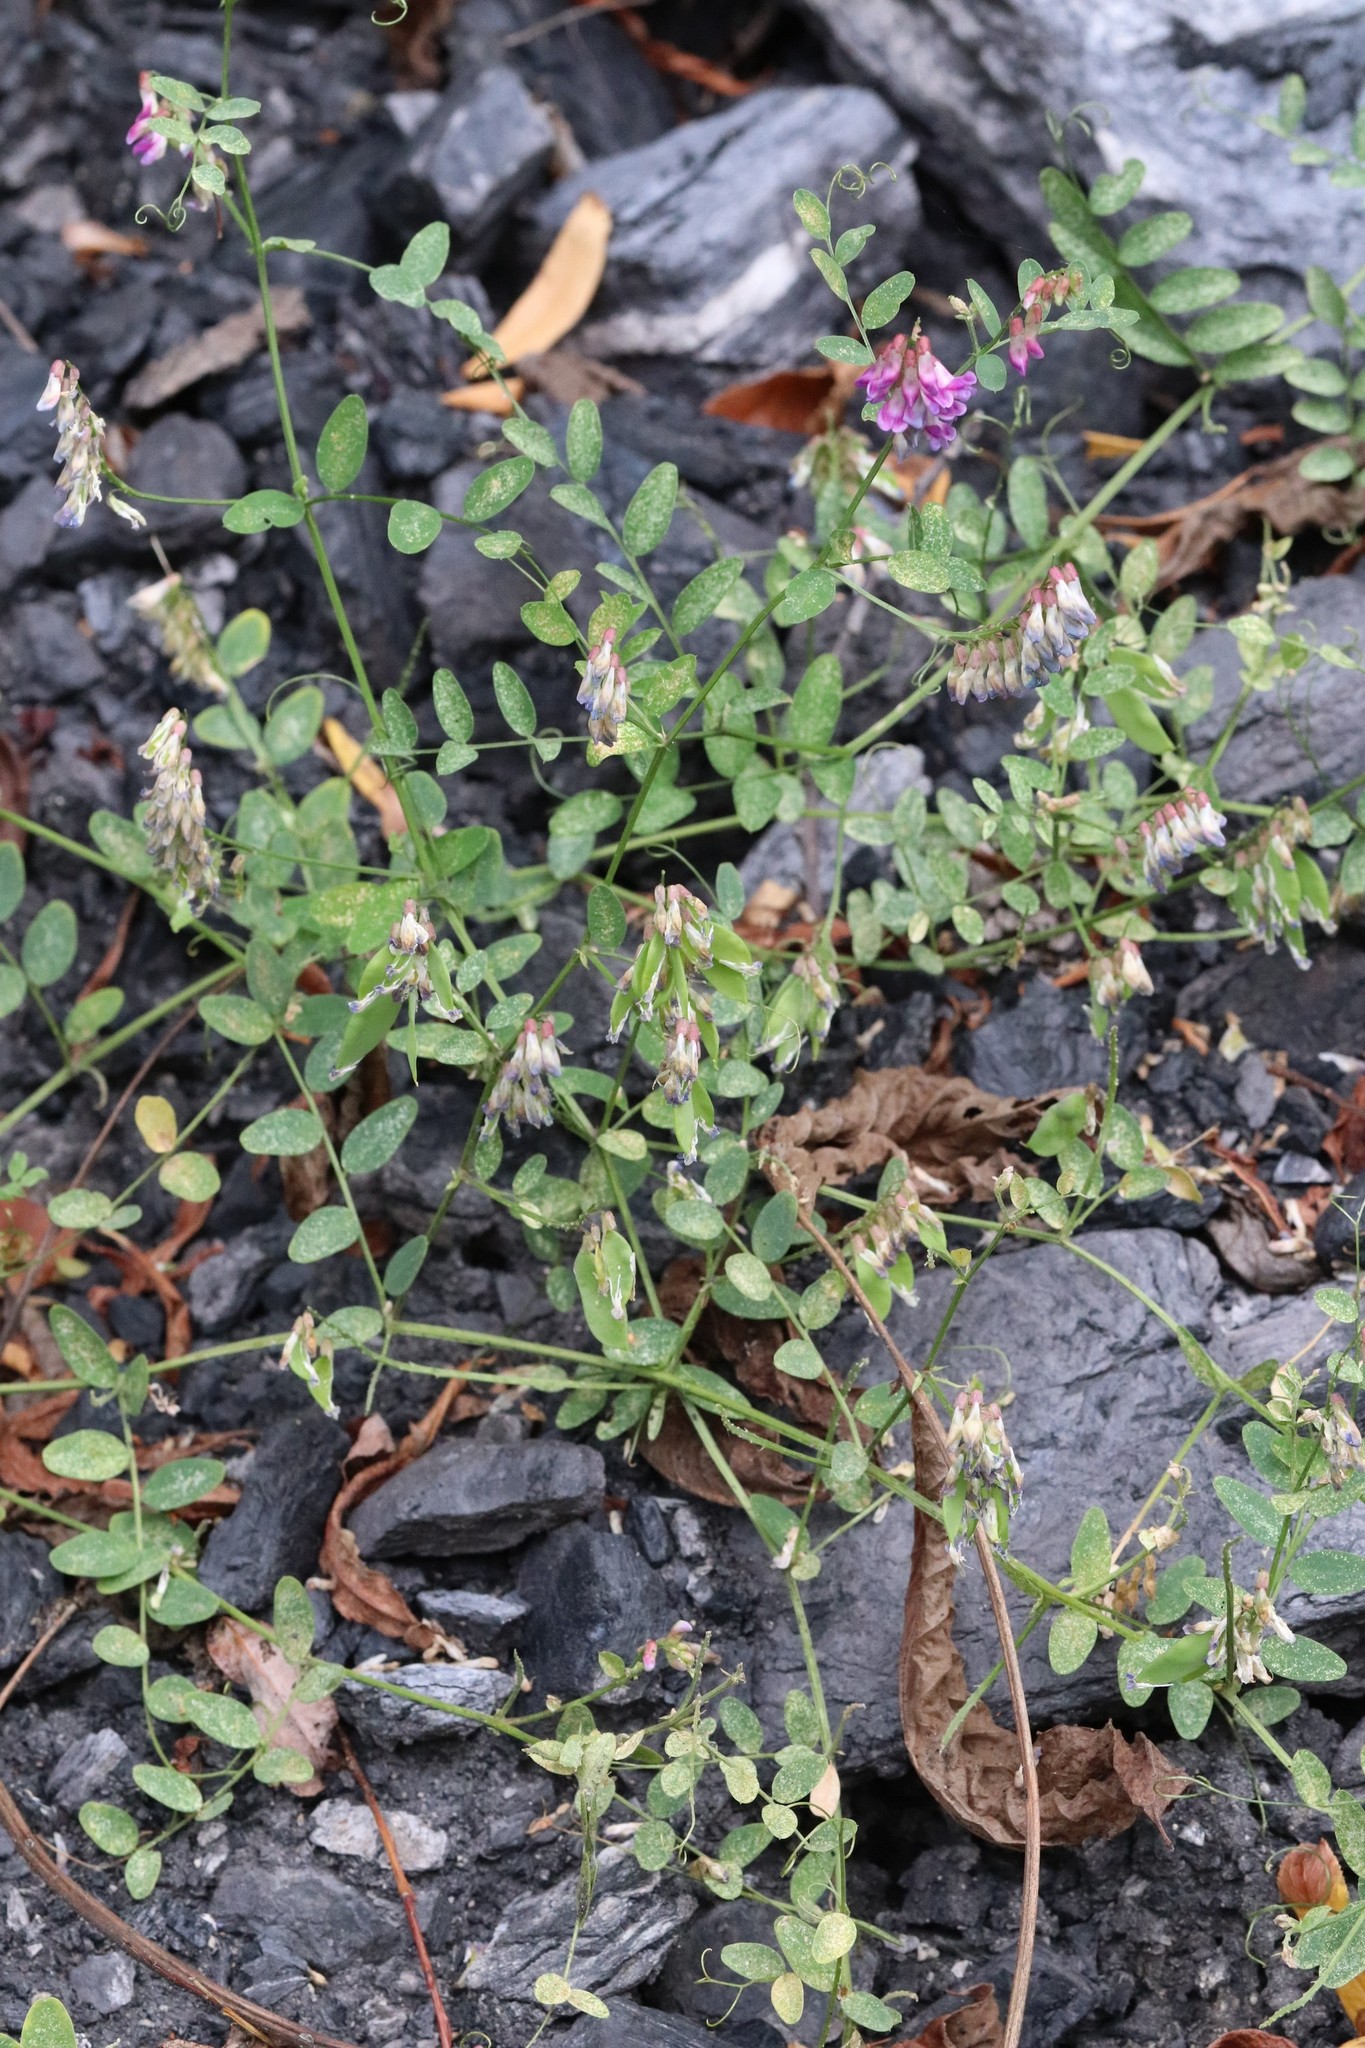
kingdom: Plantae
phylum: Tracheophyta
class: Magnoliopsida
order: Fabales
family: Fabaceae
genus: Vicia
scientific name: Vicia amurensis
